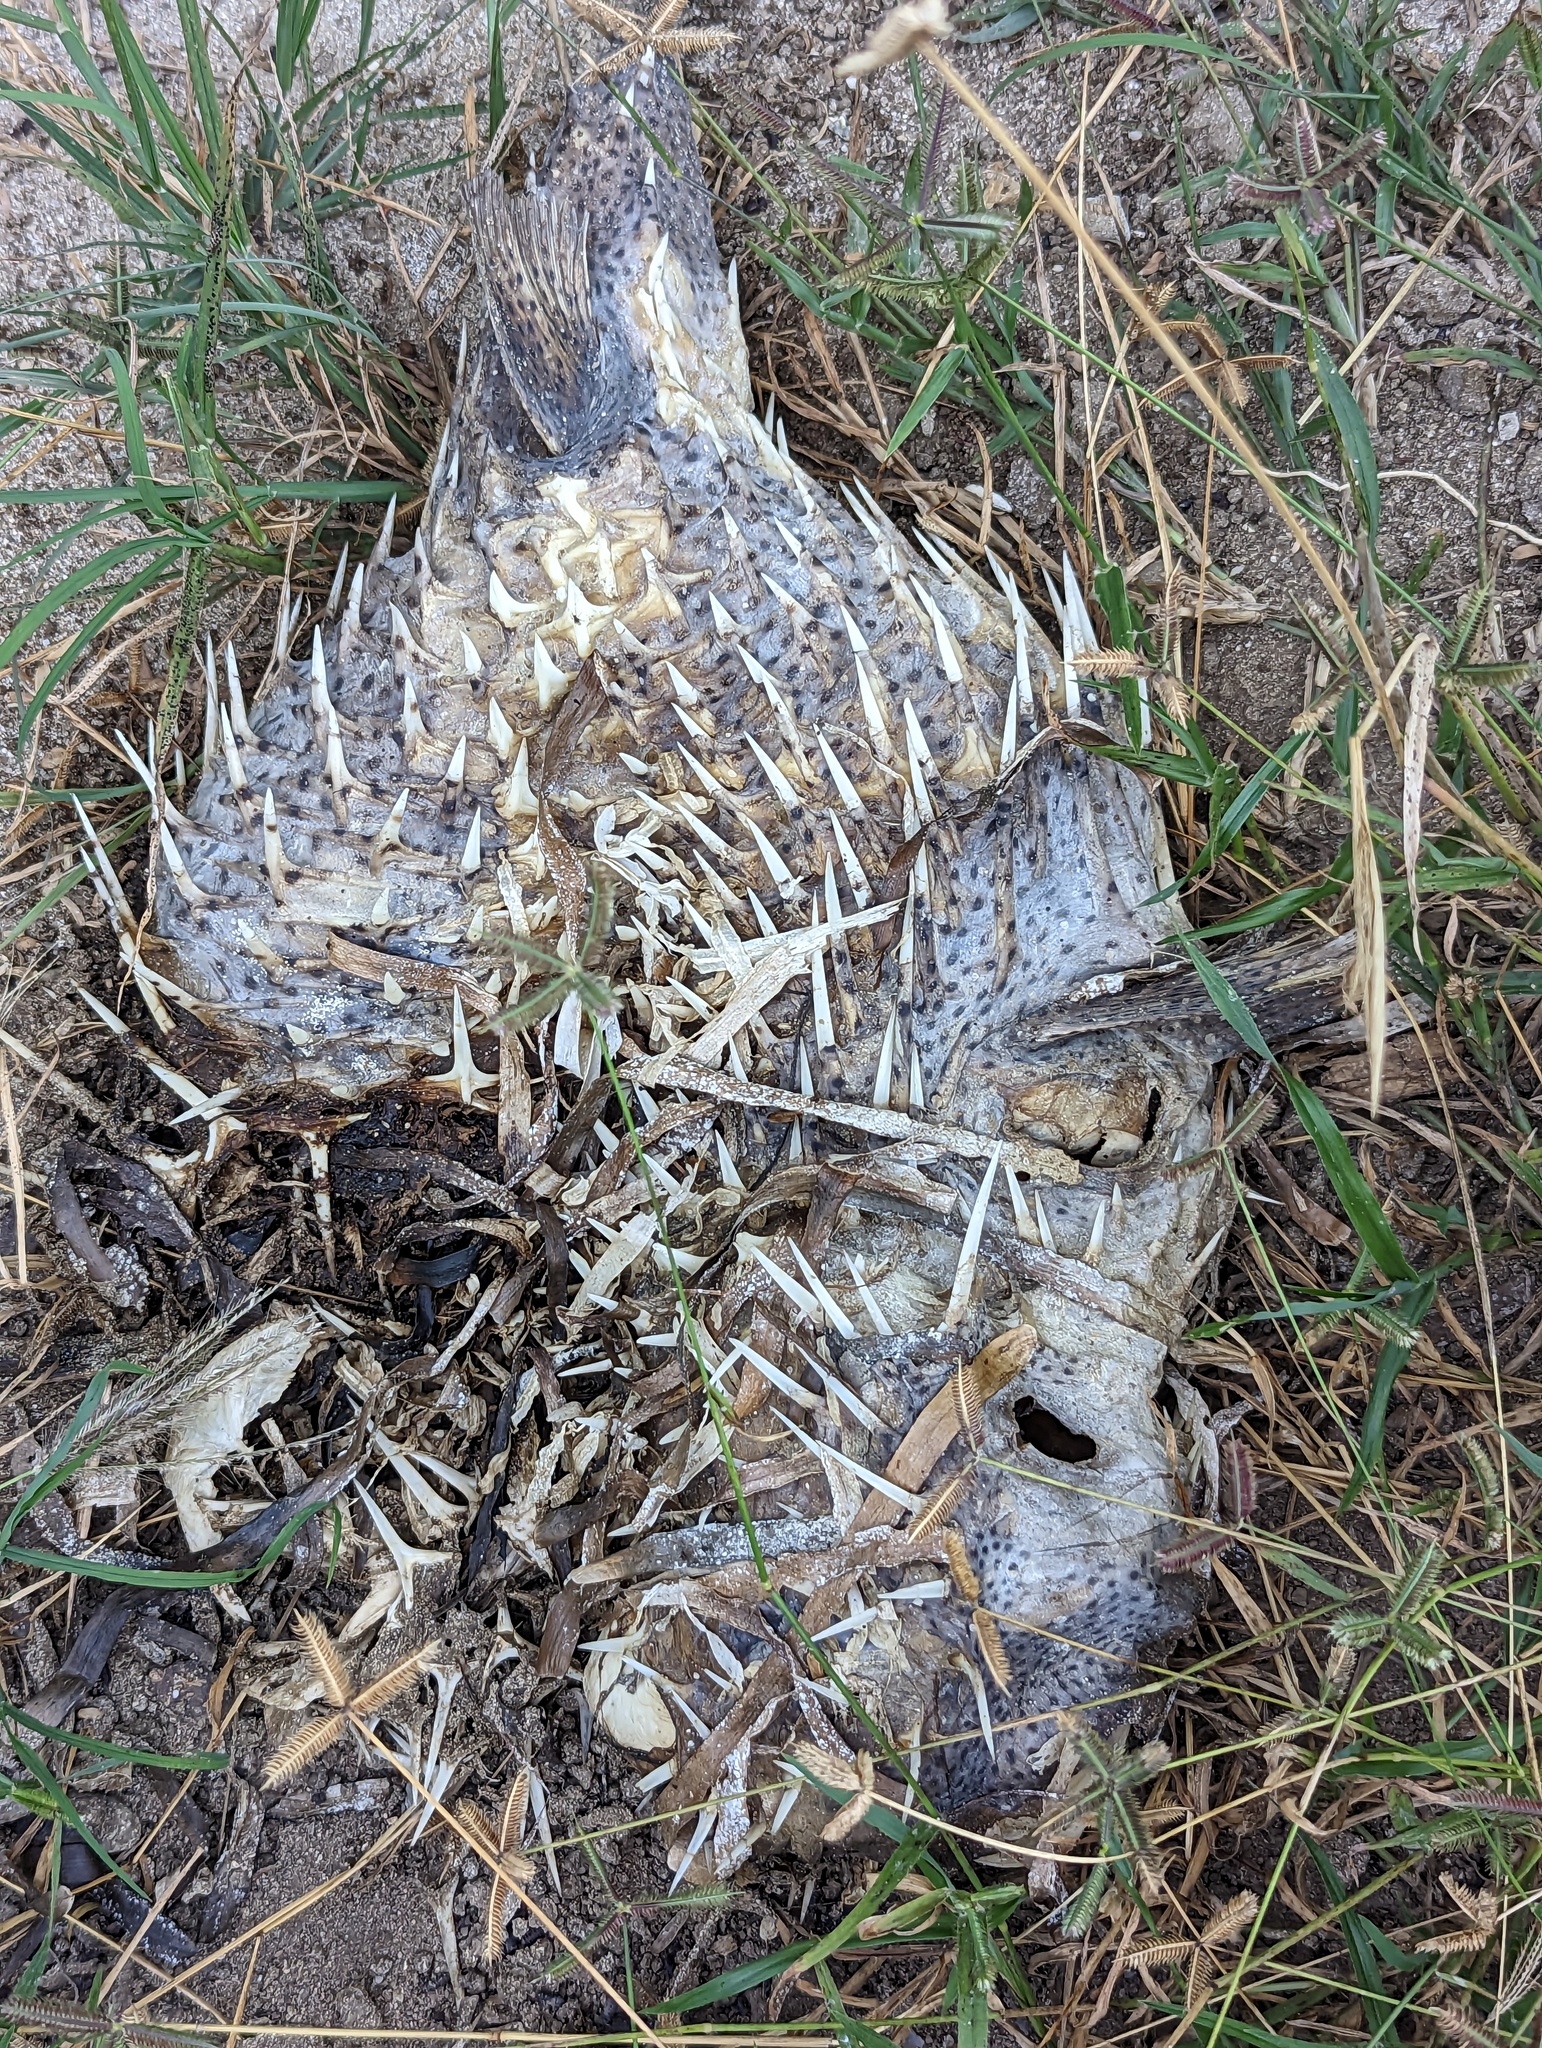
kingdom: Animalia
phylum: Chordata
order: Tetraodontiformes
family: Diodontidae
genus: Diodon
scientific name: Diodon hystrix
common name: Giant porcupinefish
